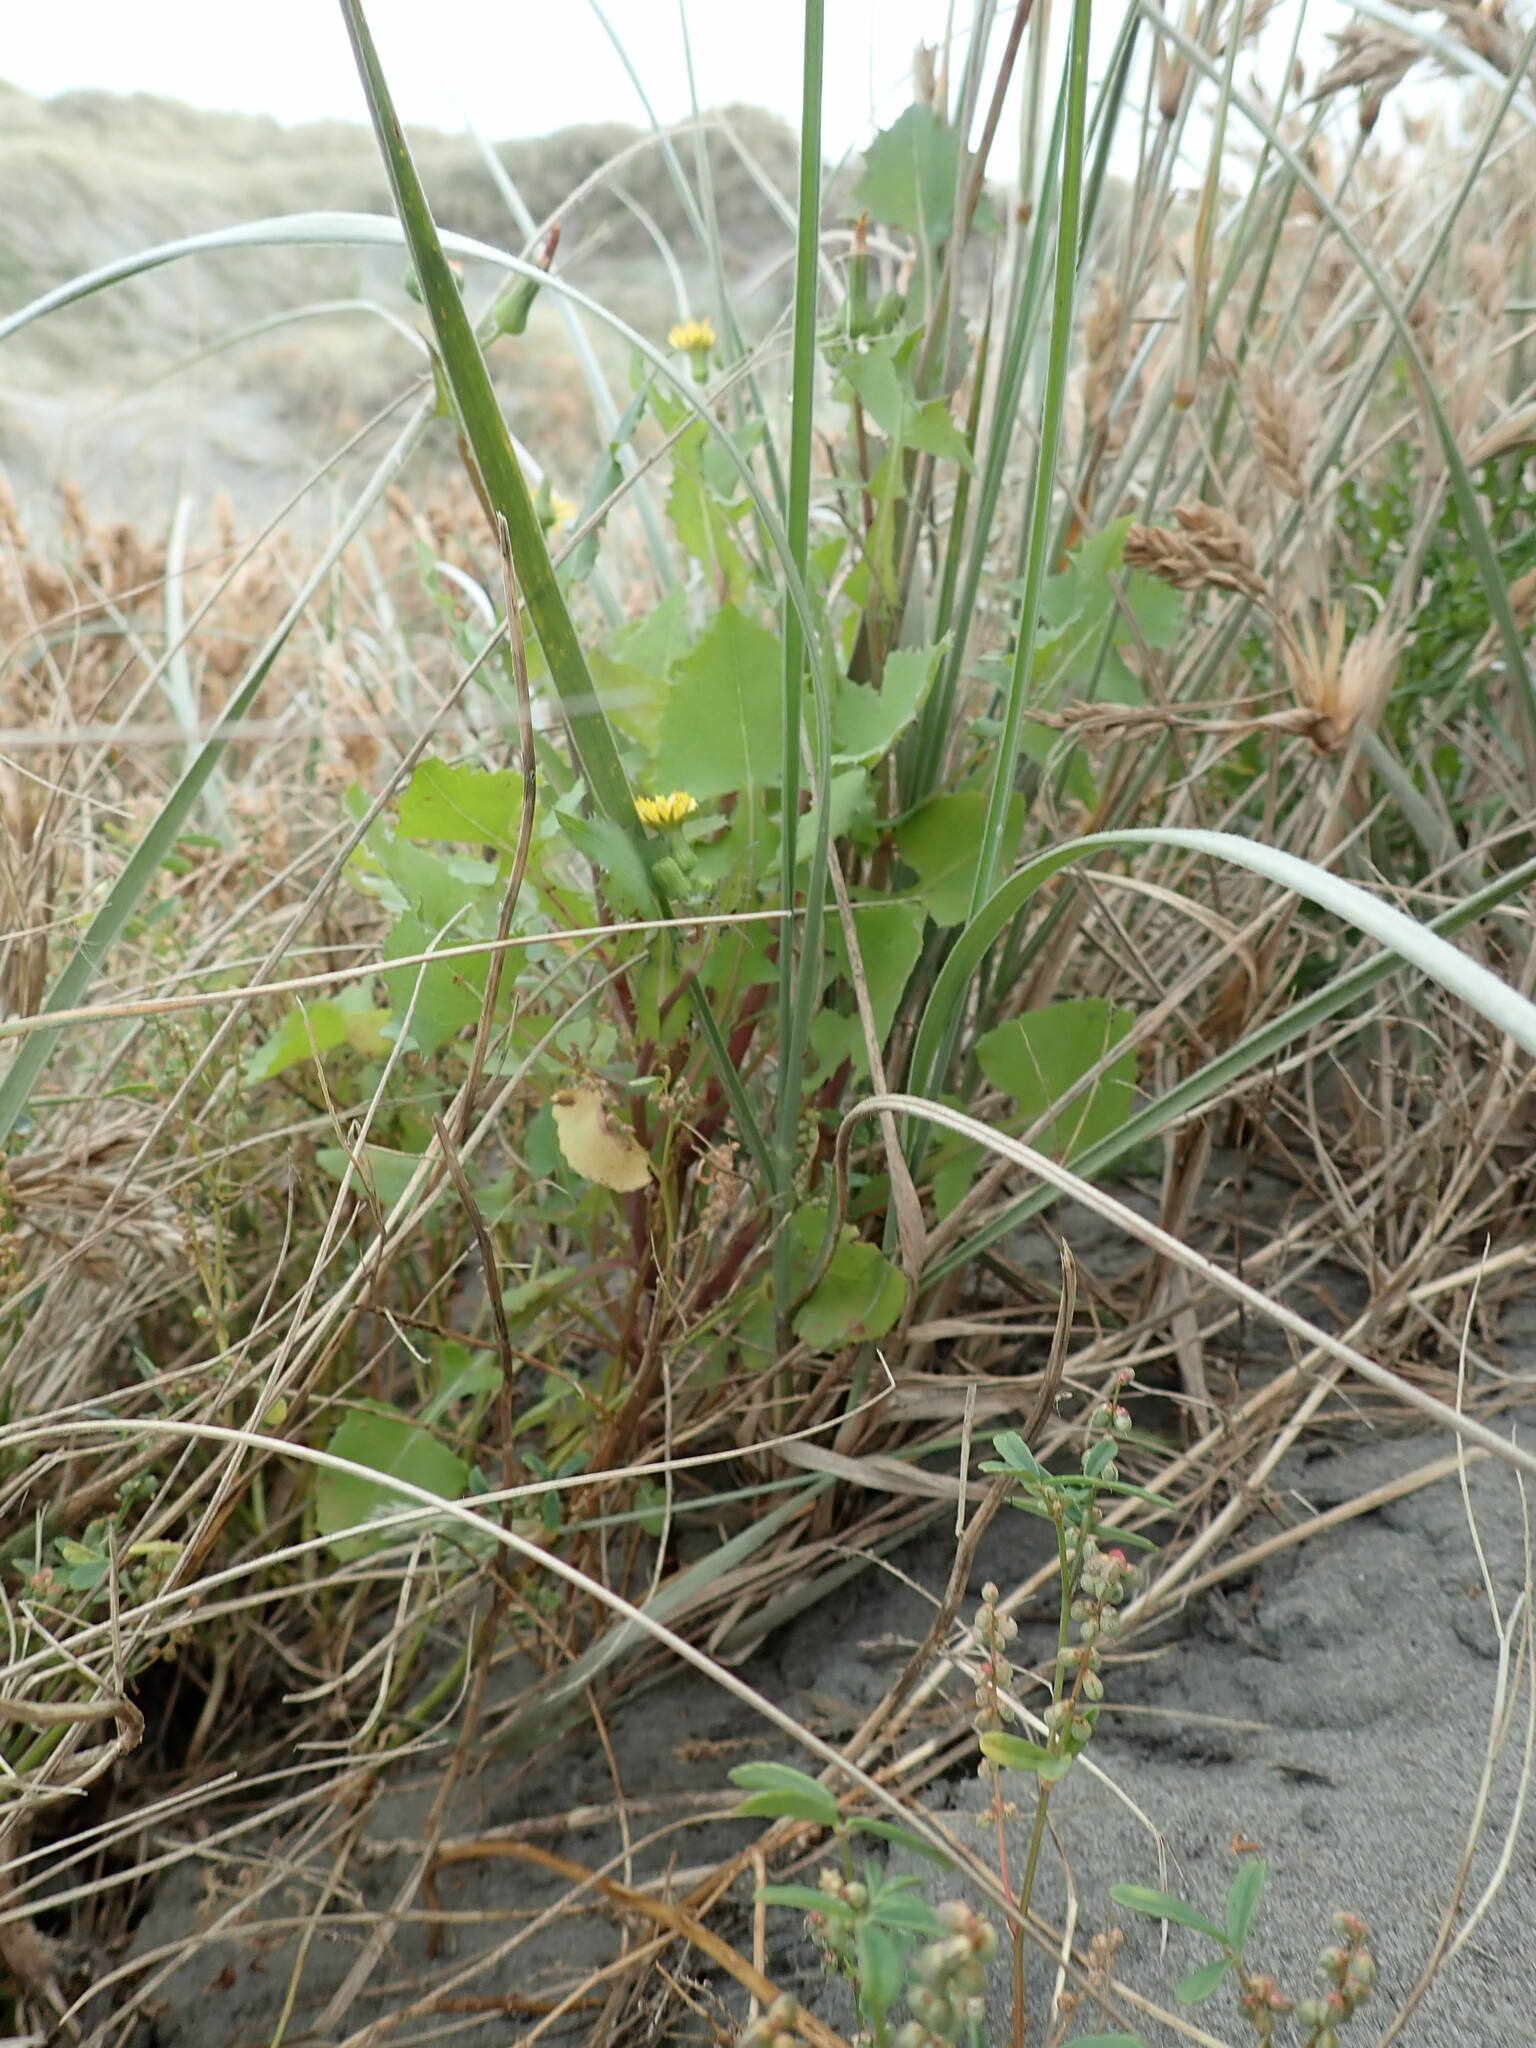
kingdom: Plantae
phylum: Tracheophyta
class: Magnoliopsida
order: Asterales
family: Asteraceae
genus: Sonchus
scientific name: Sonchus oleraceus
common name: Common sowthistle
